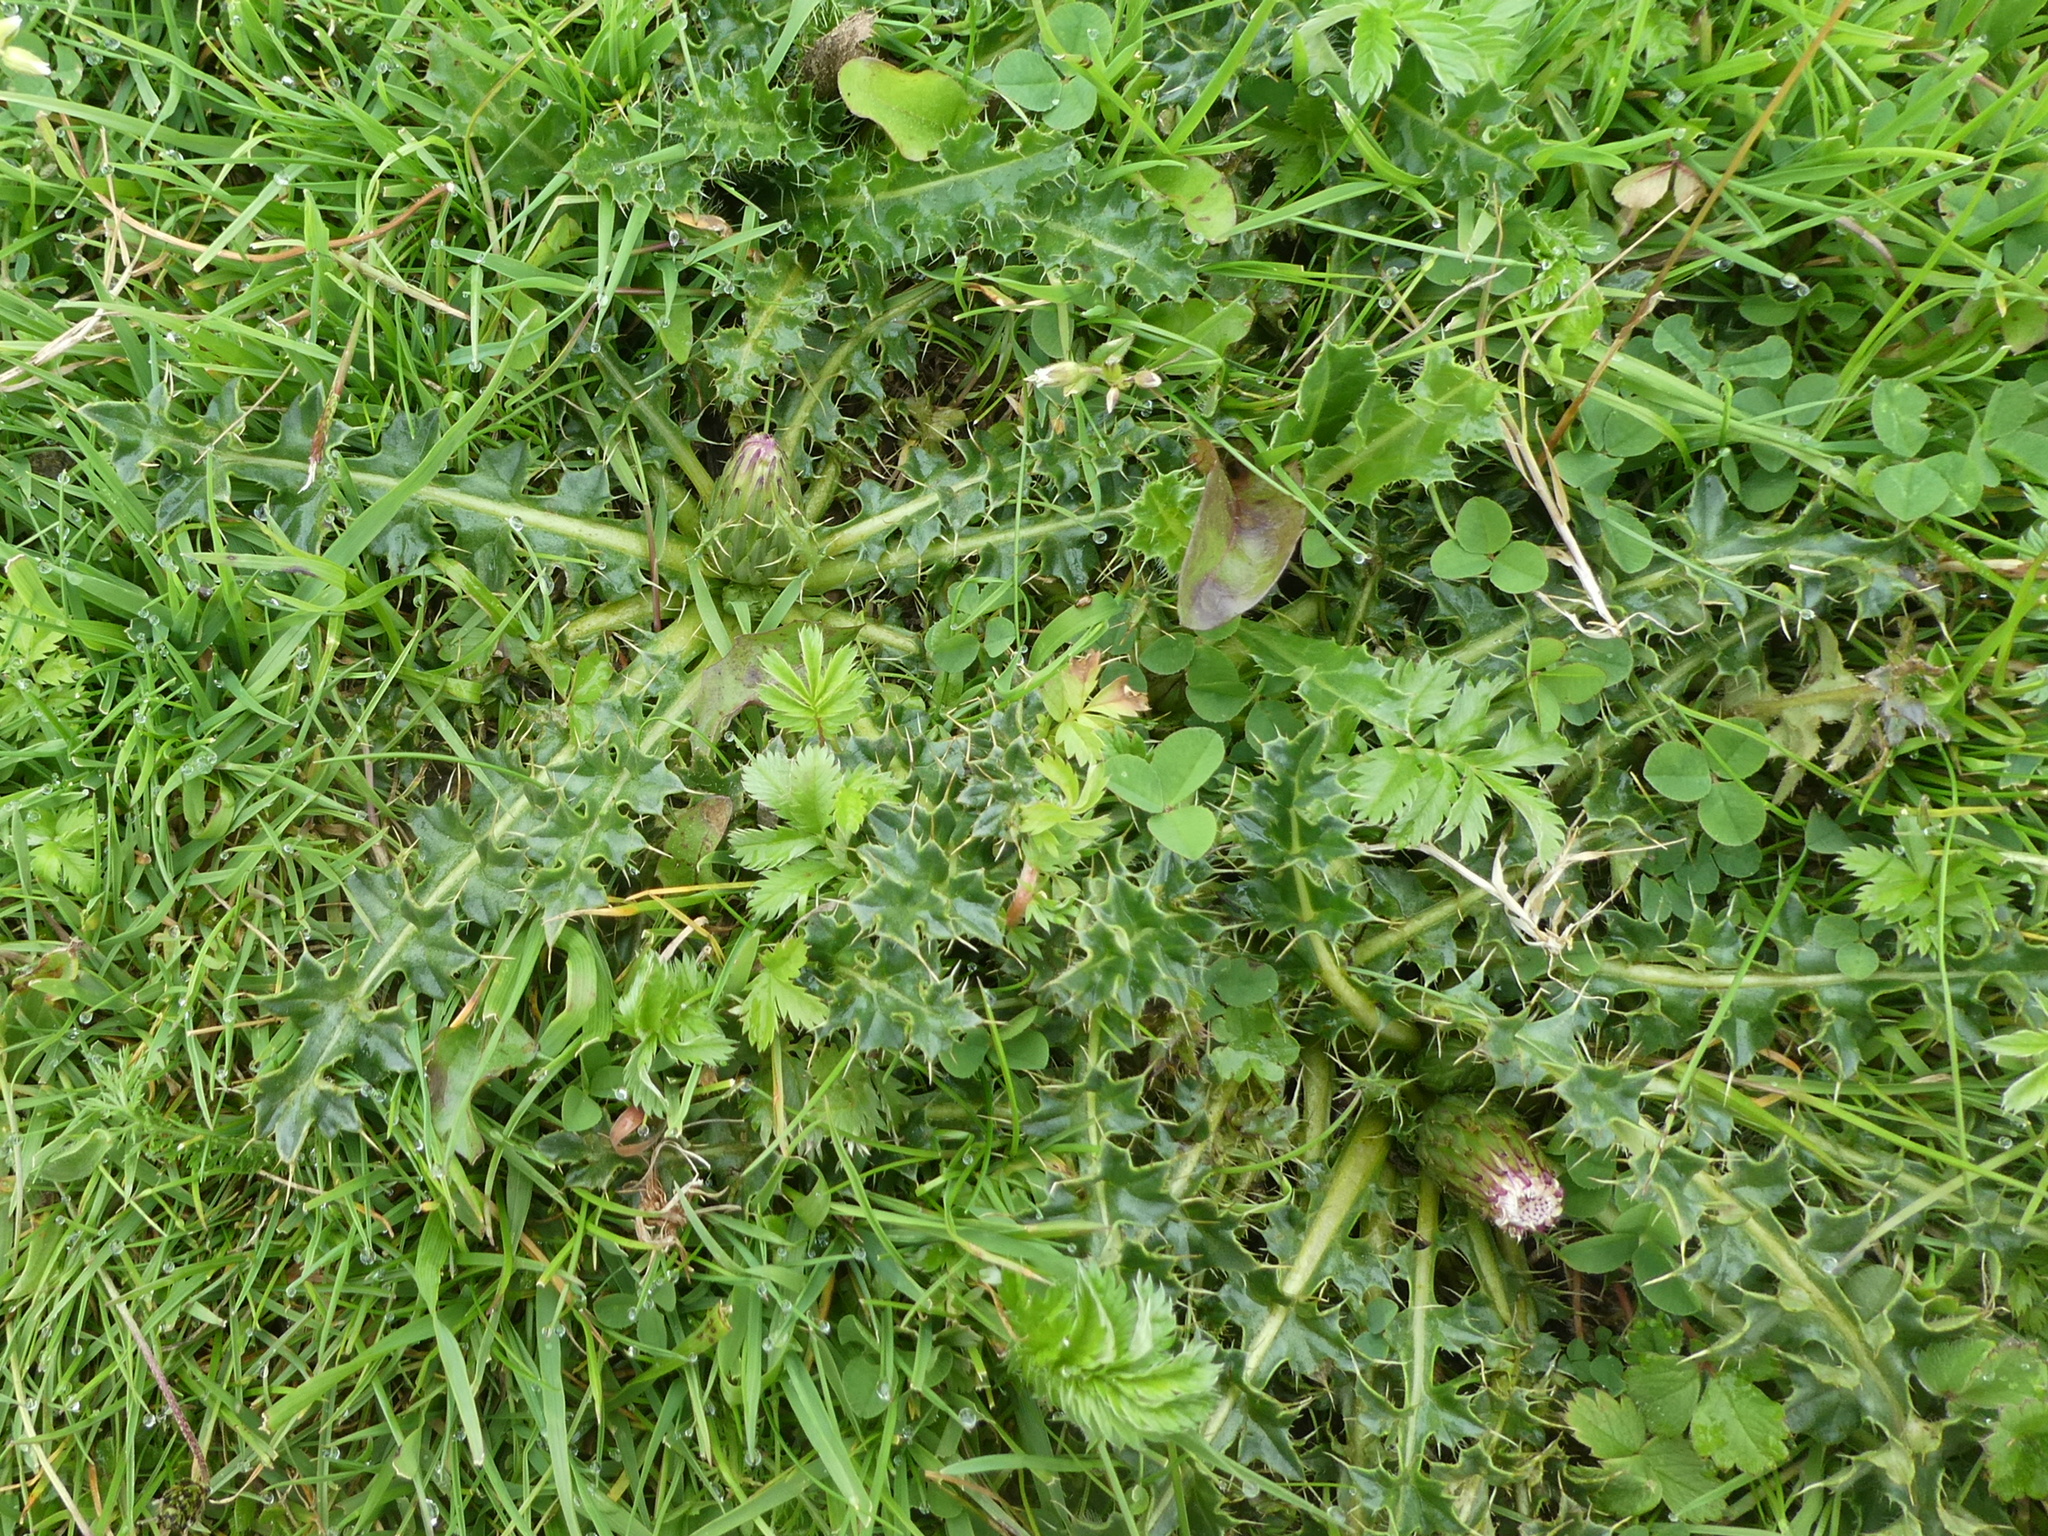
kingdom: Plantae
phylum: Tracheophyta
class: Magnoliopsida
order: Asterales
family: Asteraceae
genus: Cirsium
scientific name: Cirsium acaulon
